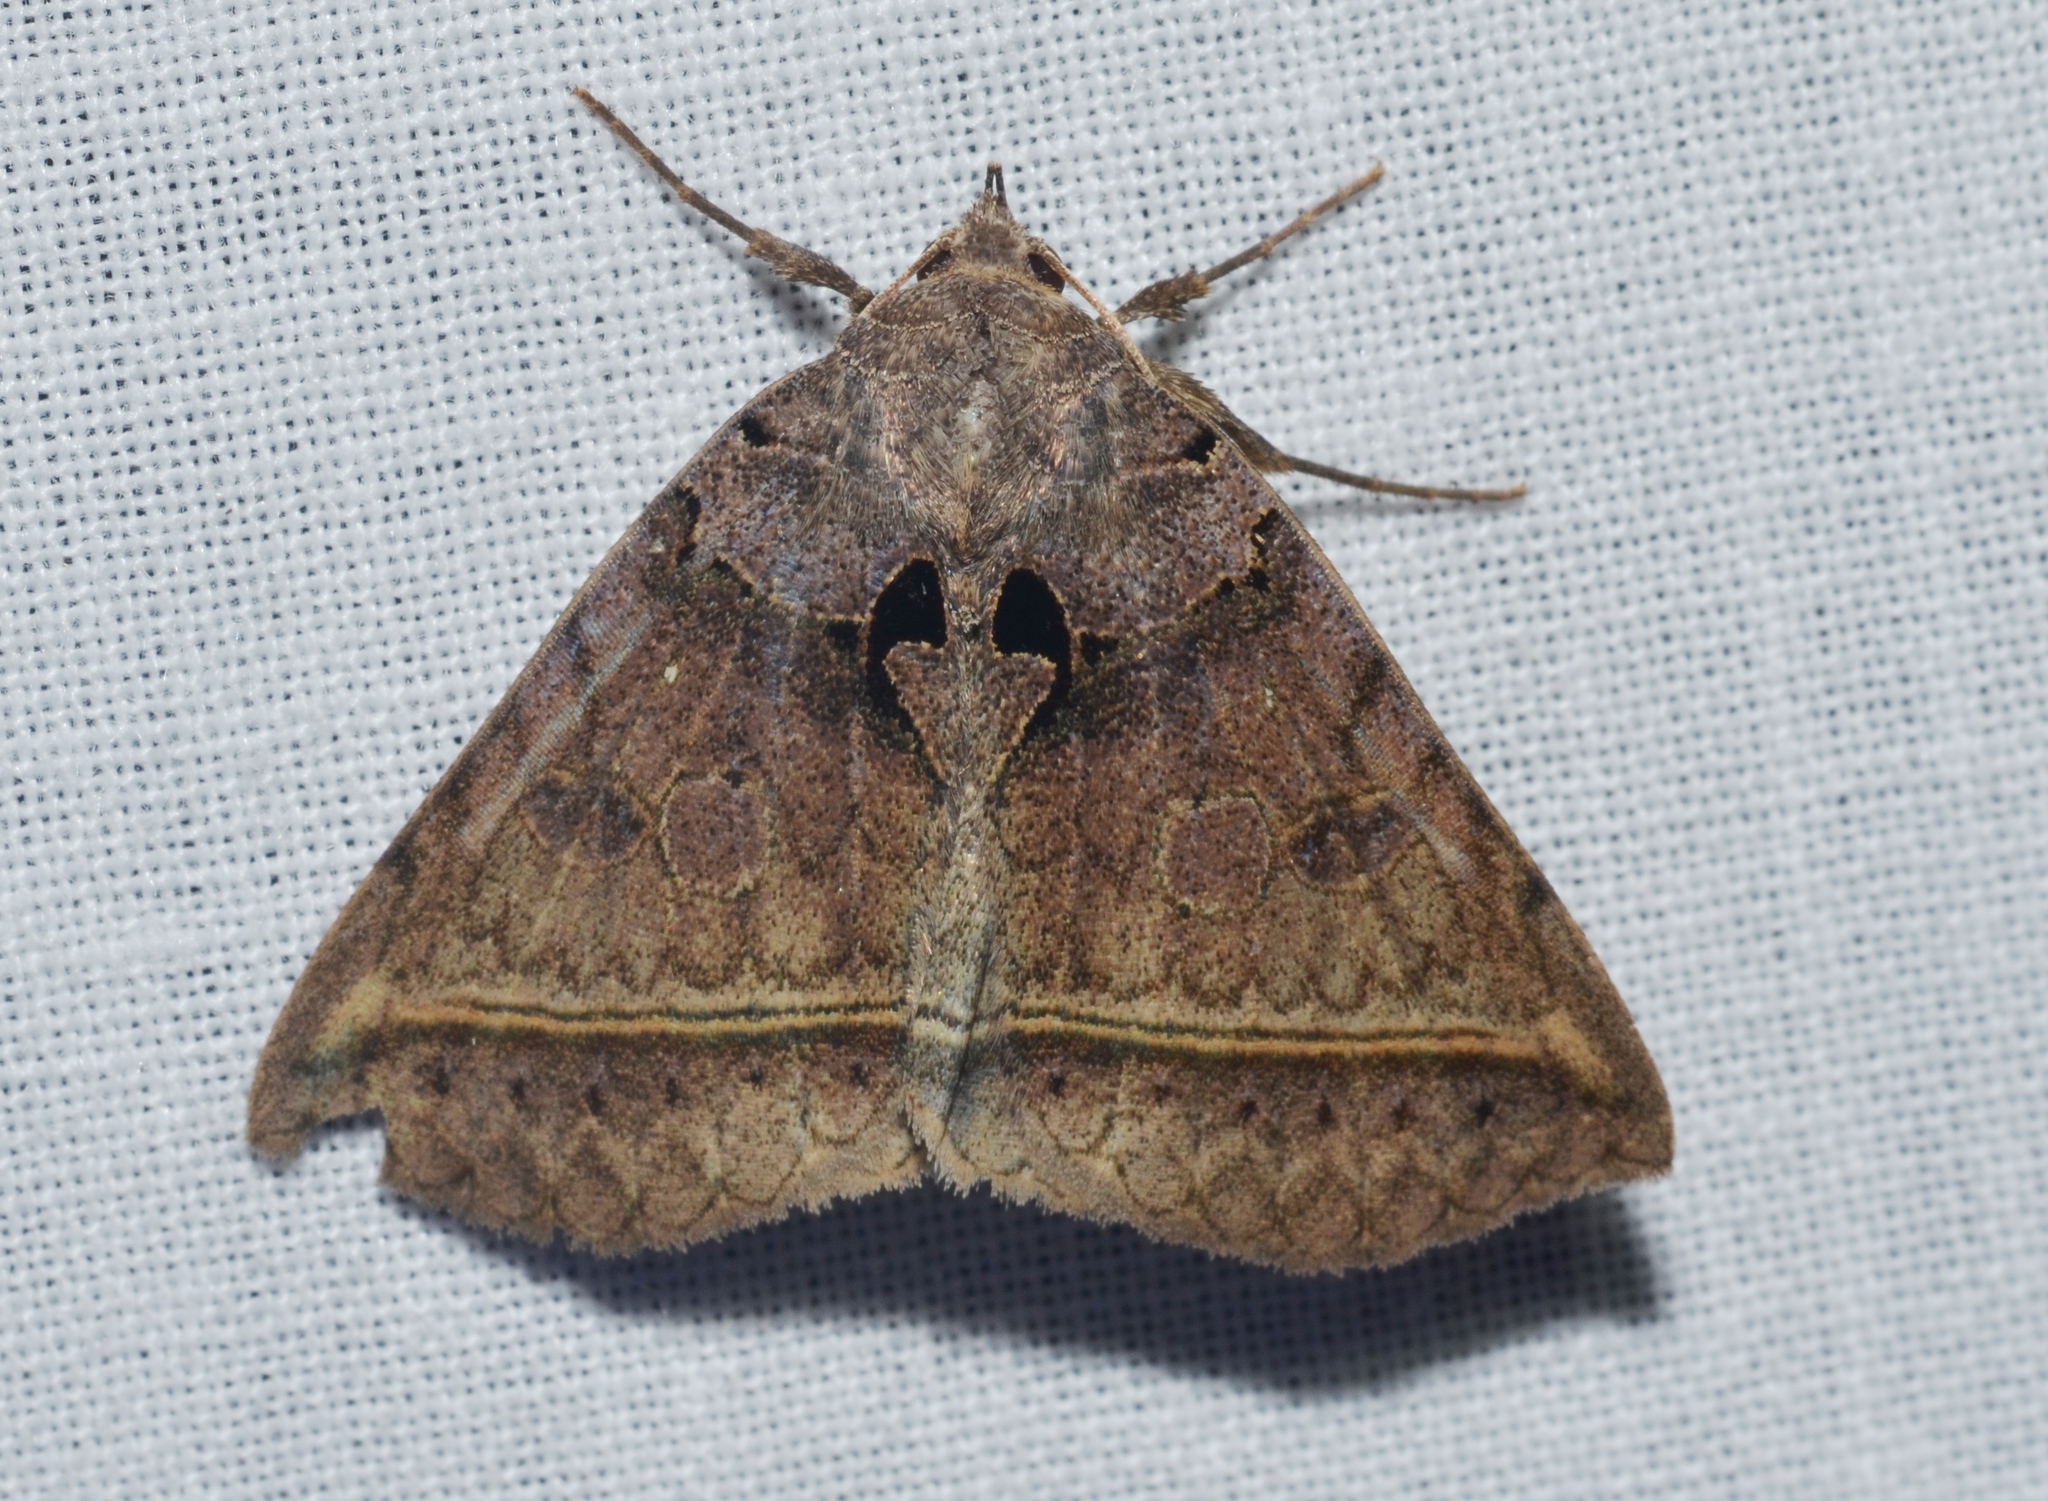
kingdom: Animalia
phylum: Arthropoda
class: Insecta
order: Lepidoptera
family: Erebidae
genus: Celiptera
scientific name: Celiptera frustulum
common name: Black bit moth
